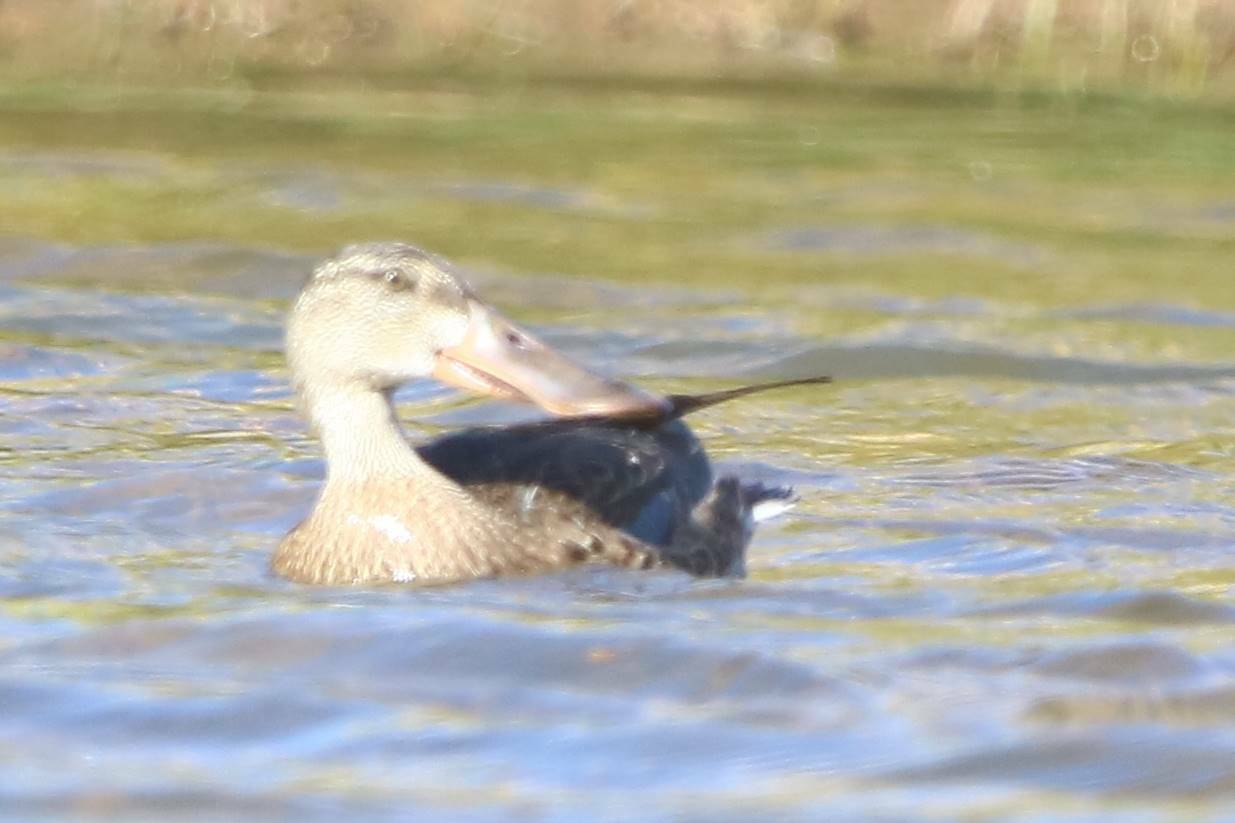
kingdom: Animalia
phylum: Chordata
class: Aves
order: Anseriformes
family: Anatidae
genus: Spatula
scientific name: Spatula clypeata
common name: Northern shoveler
